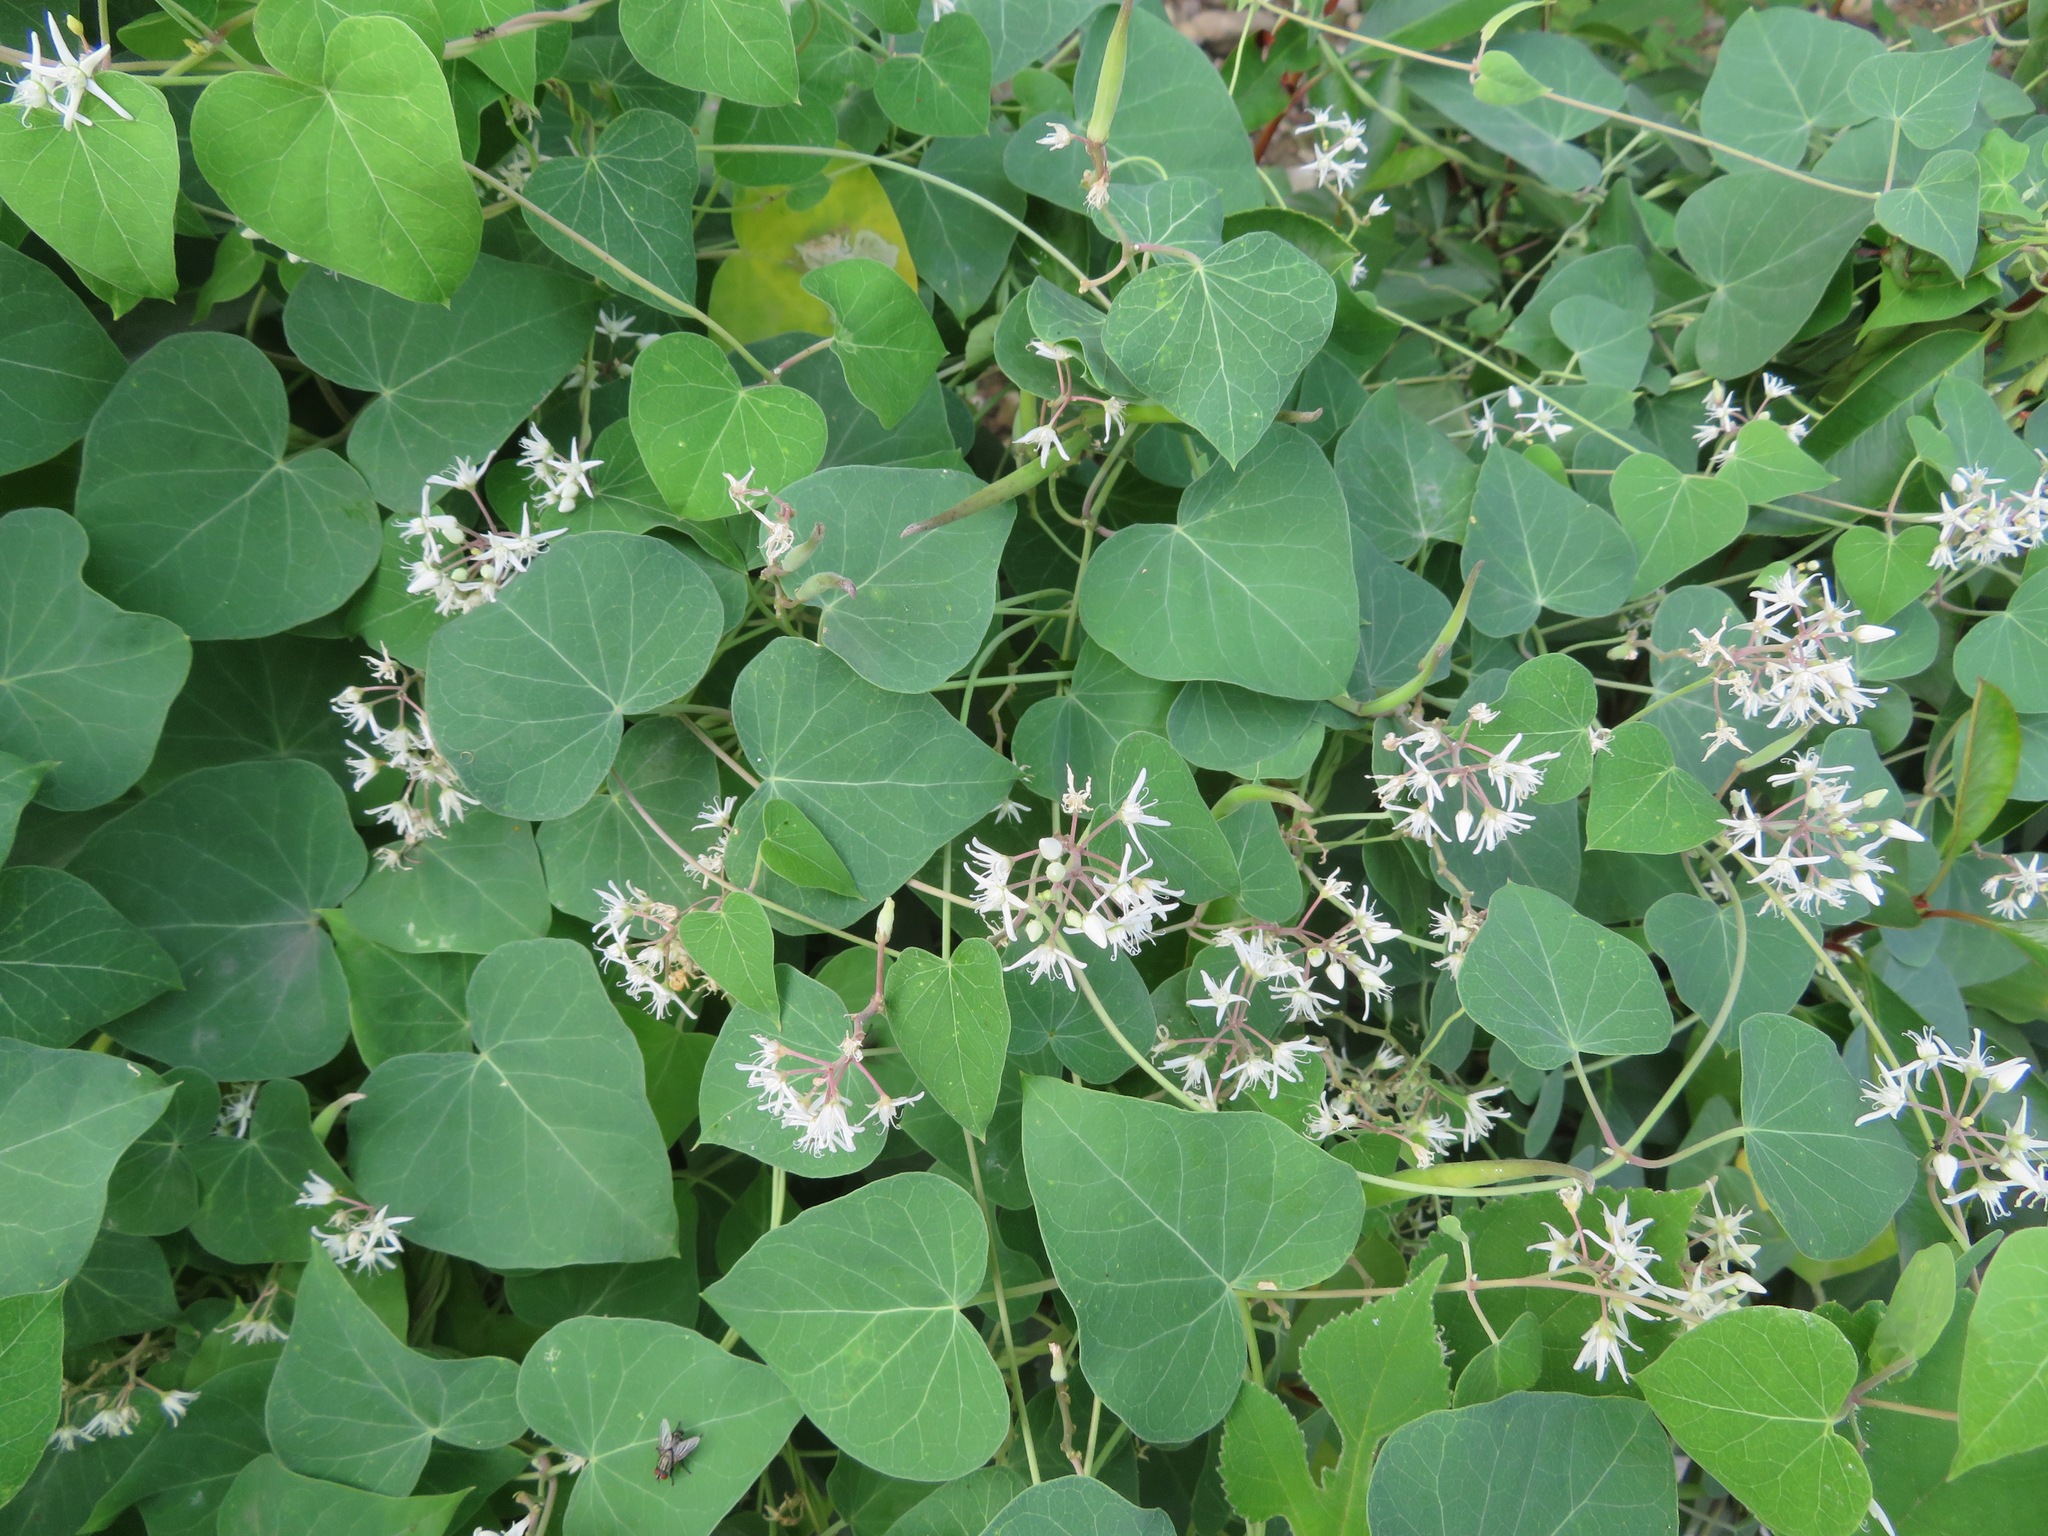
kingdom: Plantae
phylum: Tracheophyta
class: Magnoliopsida
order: Gentianales
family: Apocynaceae
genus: Vincetoxicum
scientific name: Vincetoxicum pubescens
